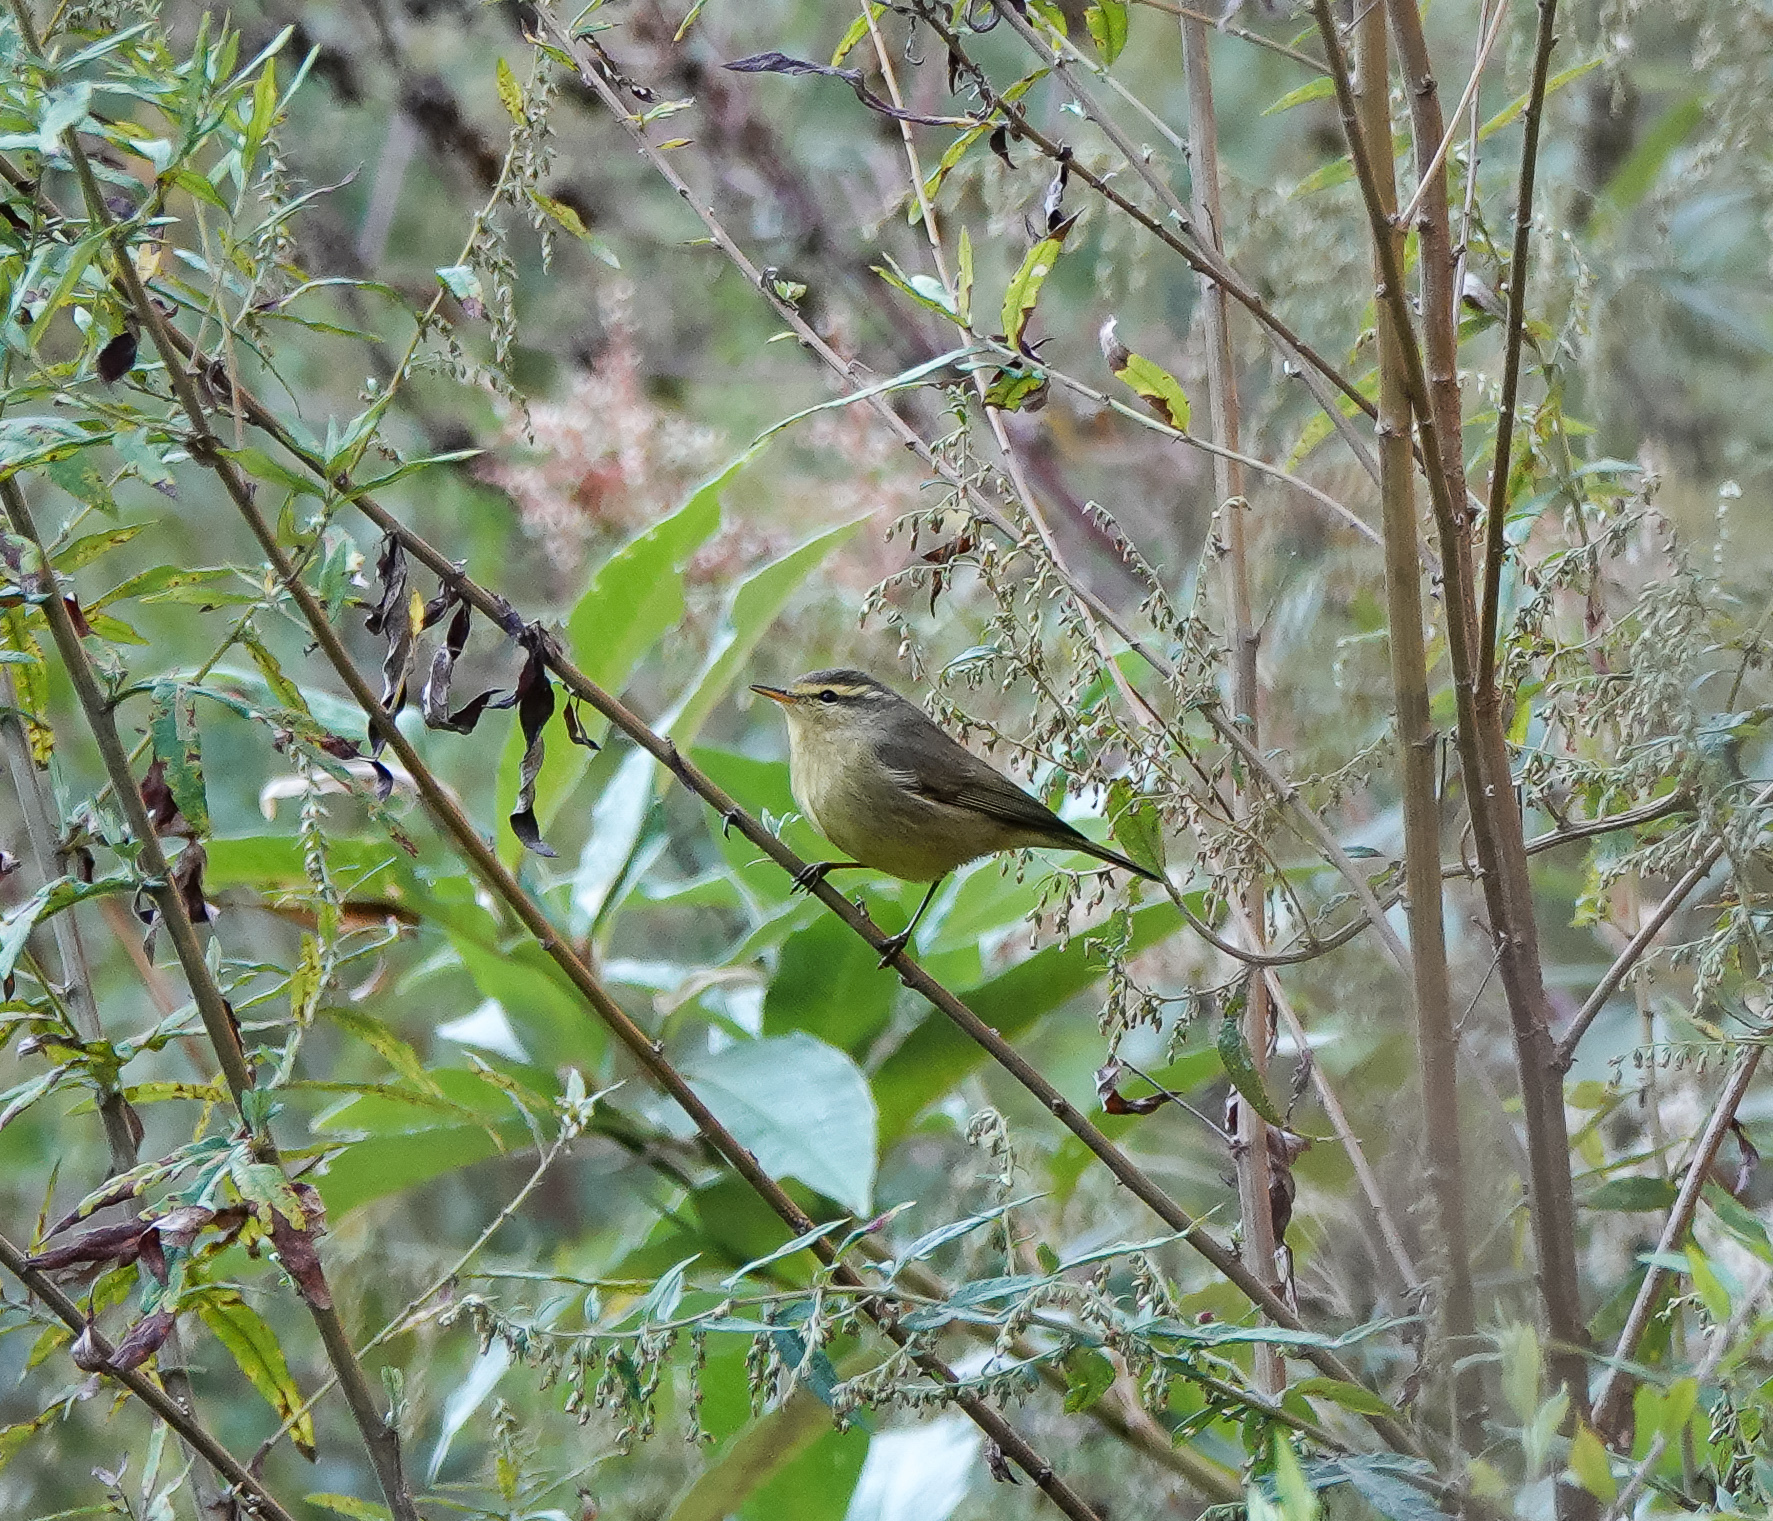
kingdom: Animalia
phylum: Chordata
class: Aves
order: Passeriformes
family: Phylloscopidae
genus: Phylloscopus
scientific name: Phylloscopus affinis
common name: Tickell's leaf warbler
